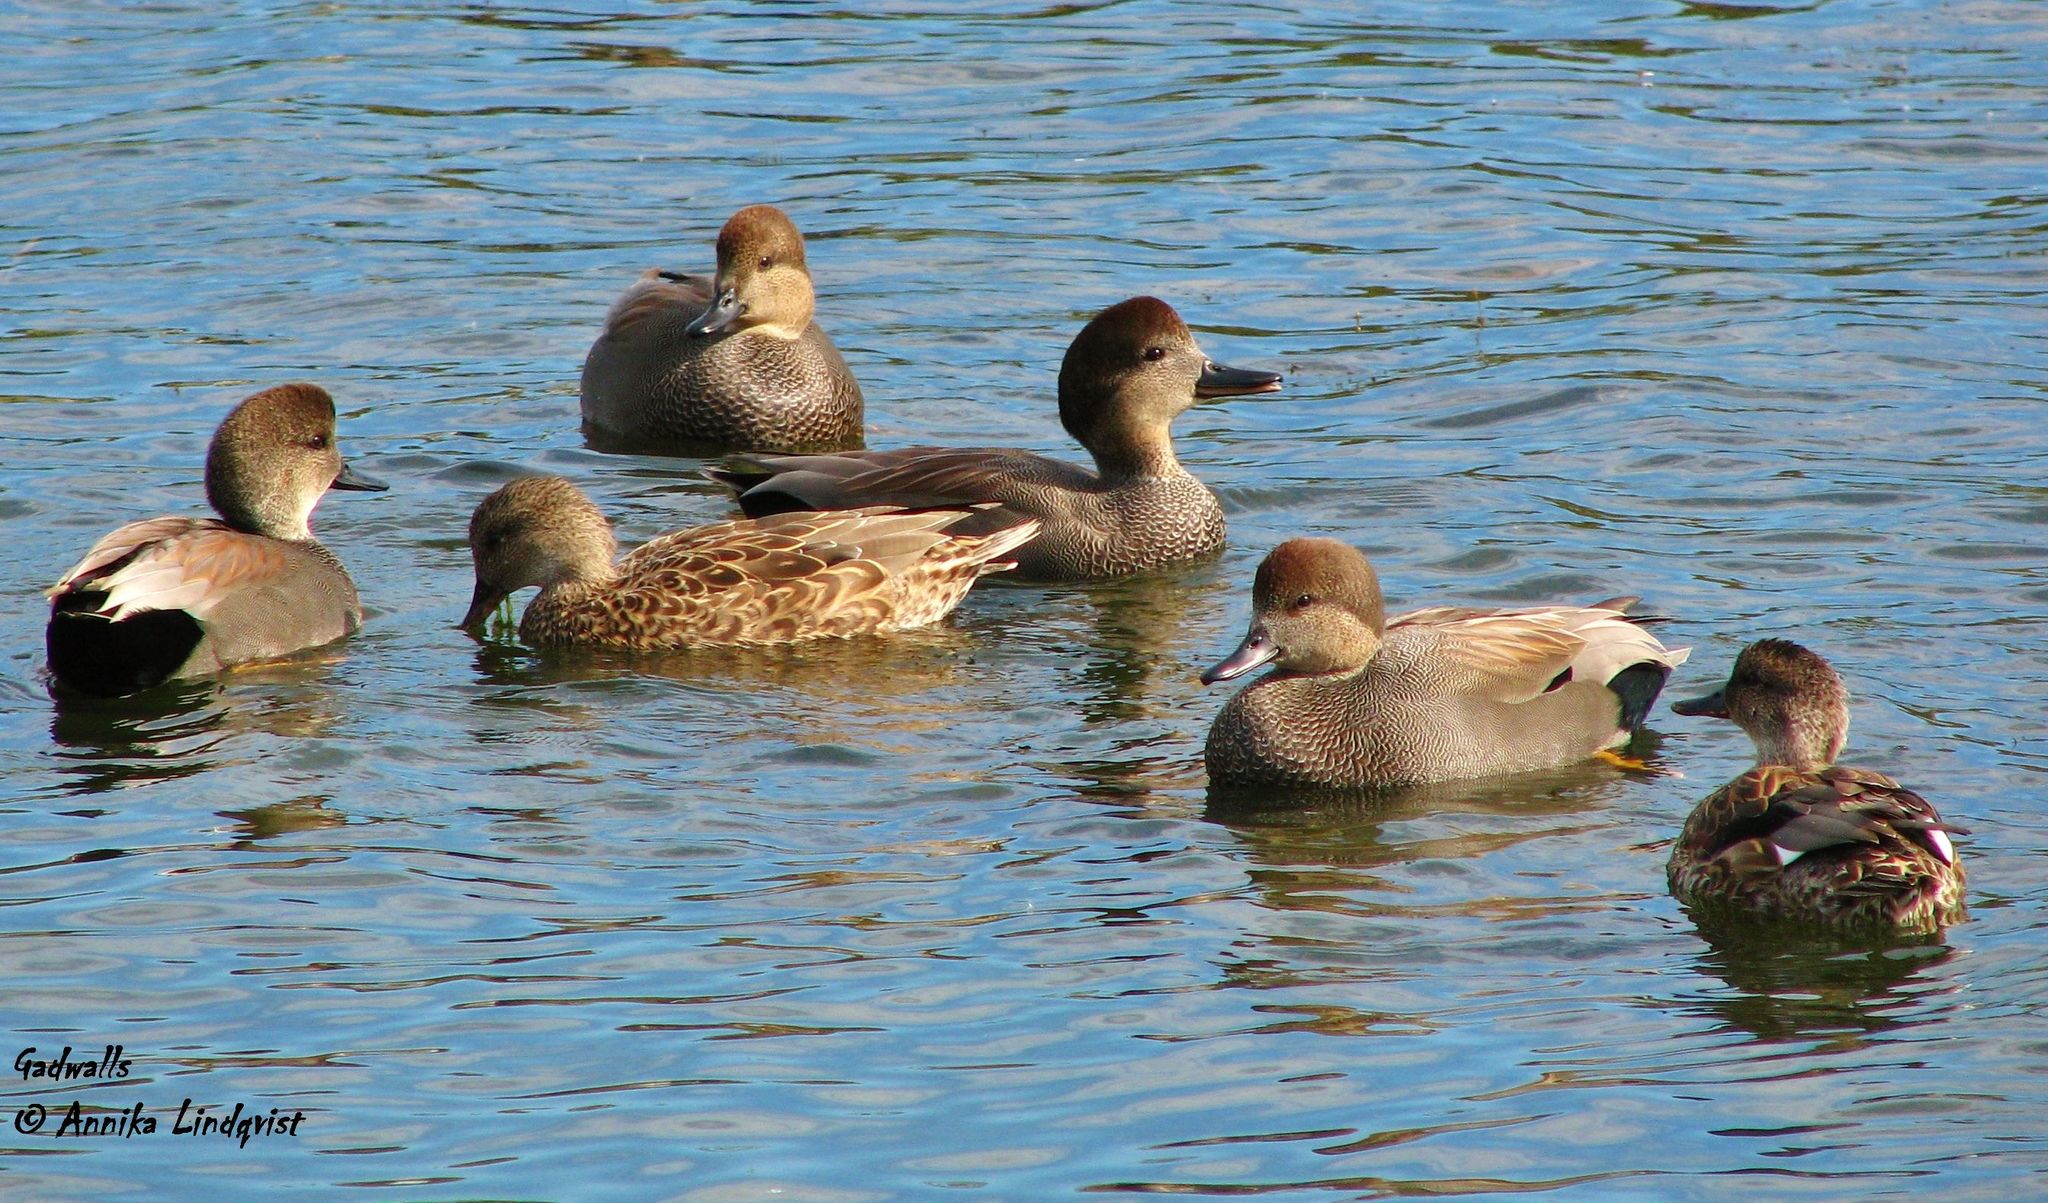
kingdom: Animalia
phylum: Chordata
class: Aves
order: Anseriformes
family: Anatidae
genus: Mareca
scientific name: Mareca strepera
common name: Gadwall
